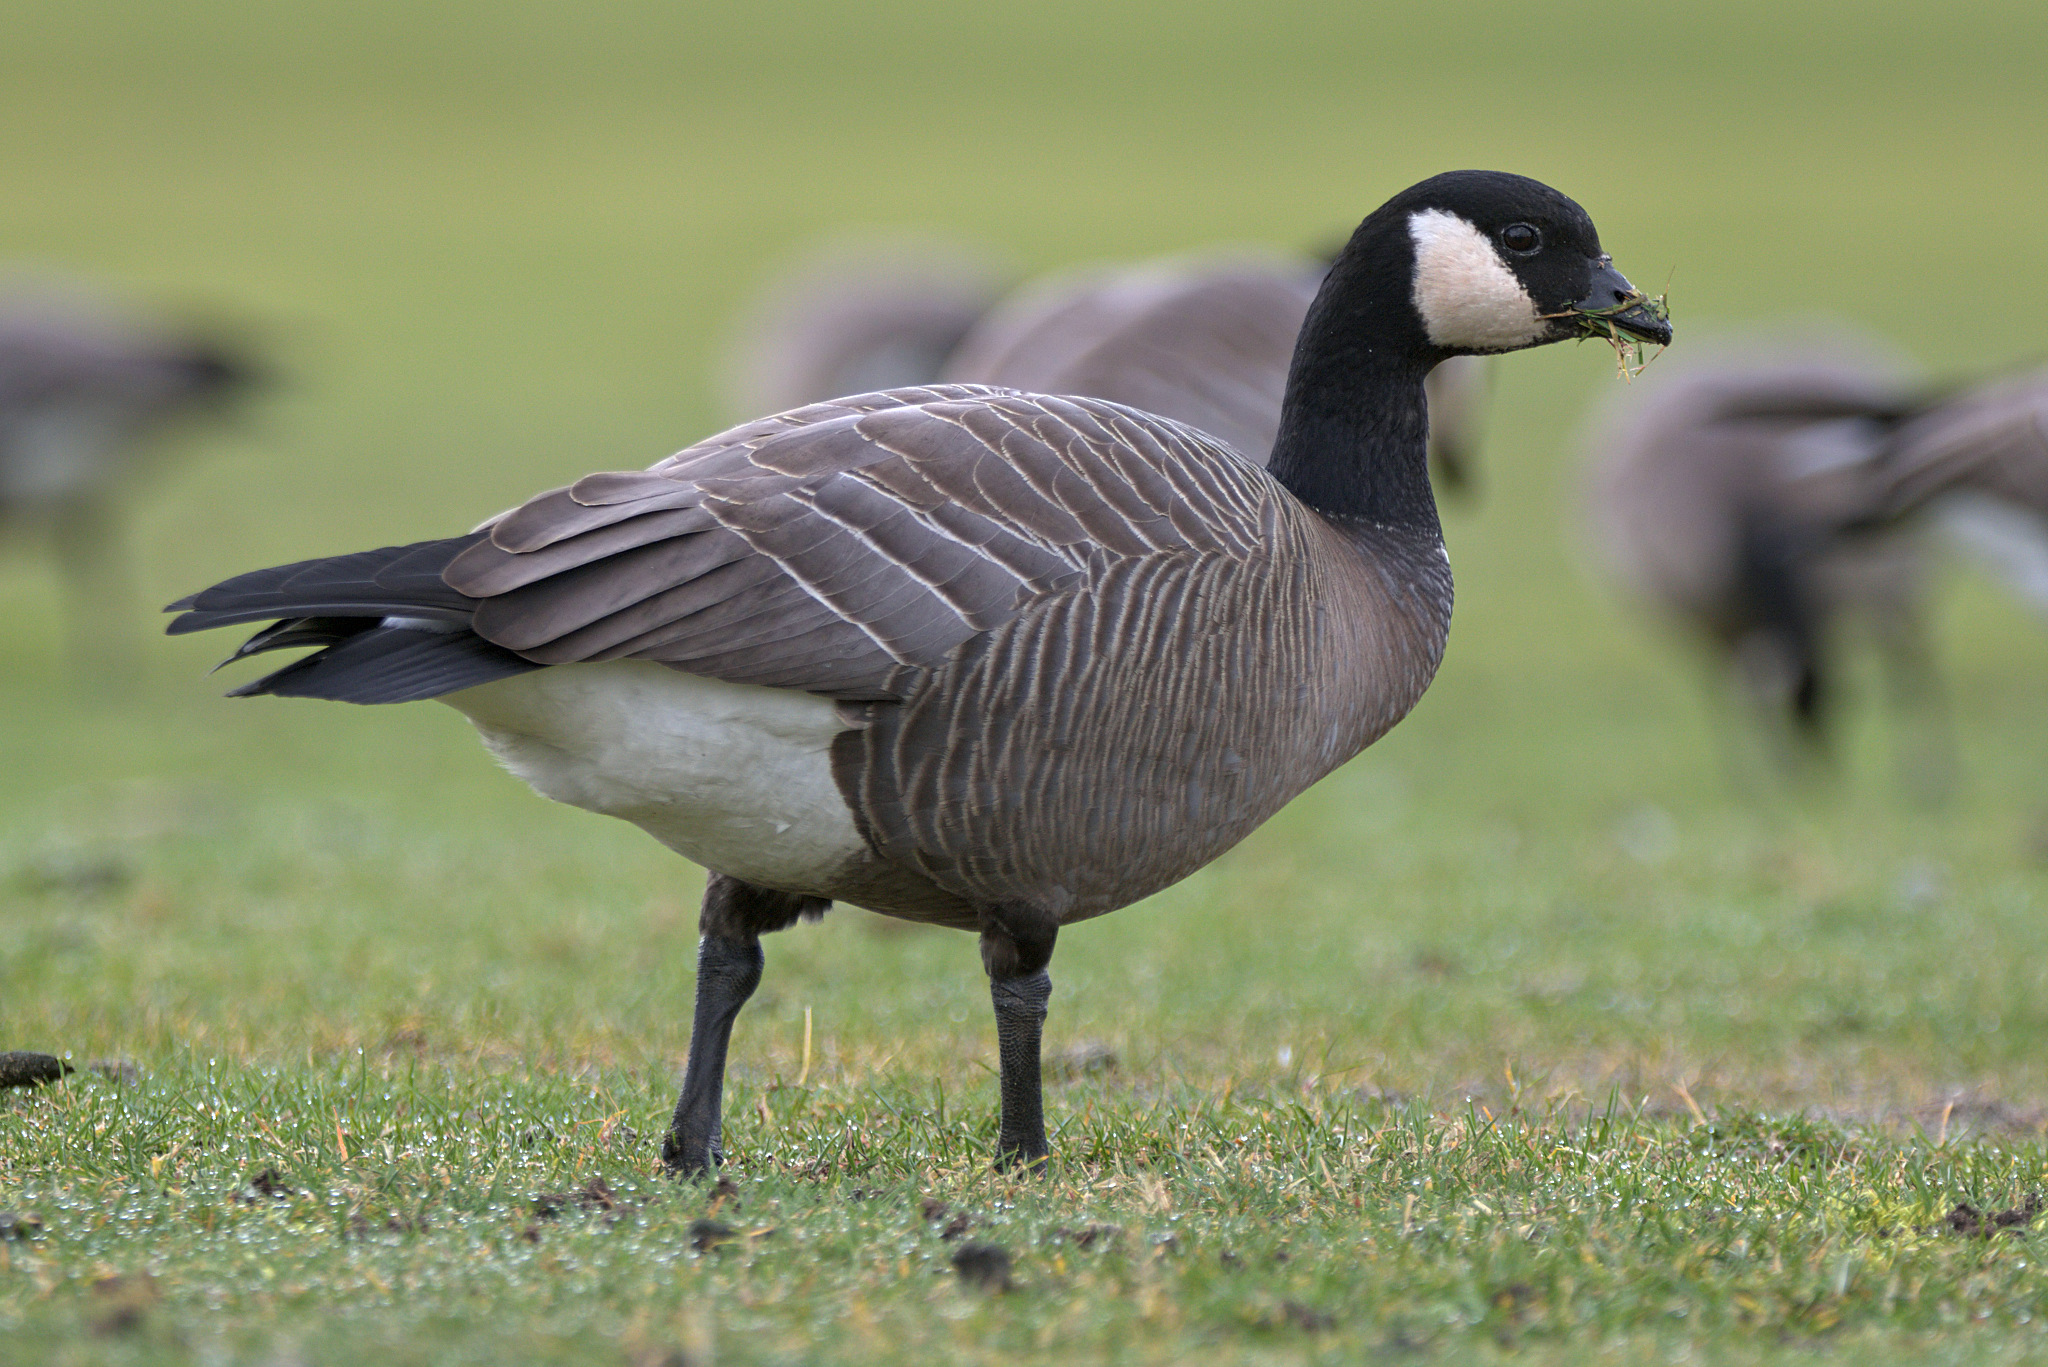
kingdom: Animalia
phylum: Chordata
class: Aves
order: Anseriformes
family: Anatidae
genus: Branta
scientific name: Branta hutchinsii
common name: Cackling goose
